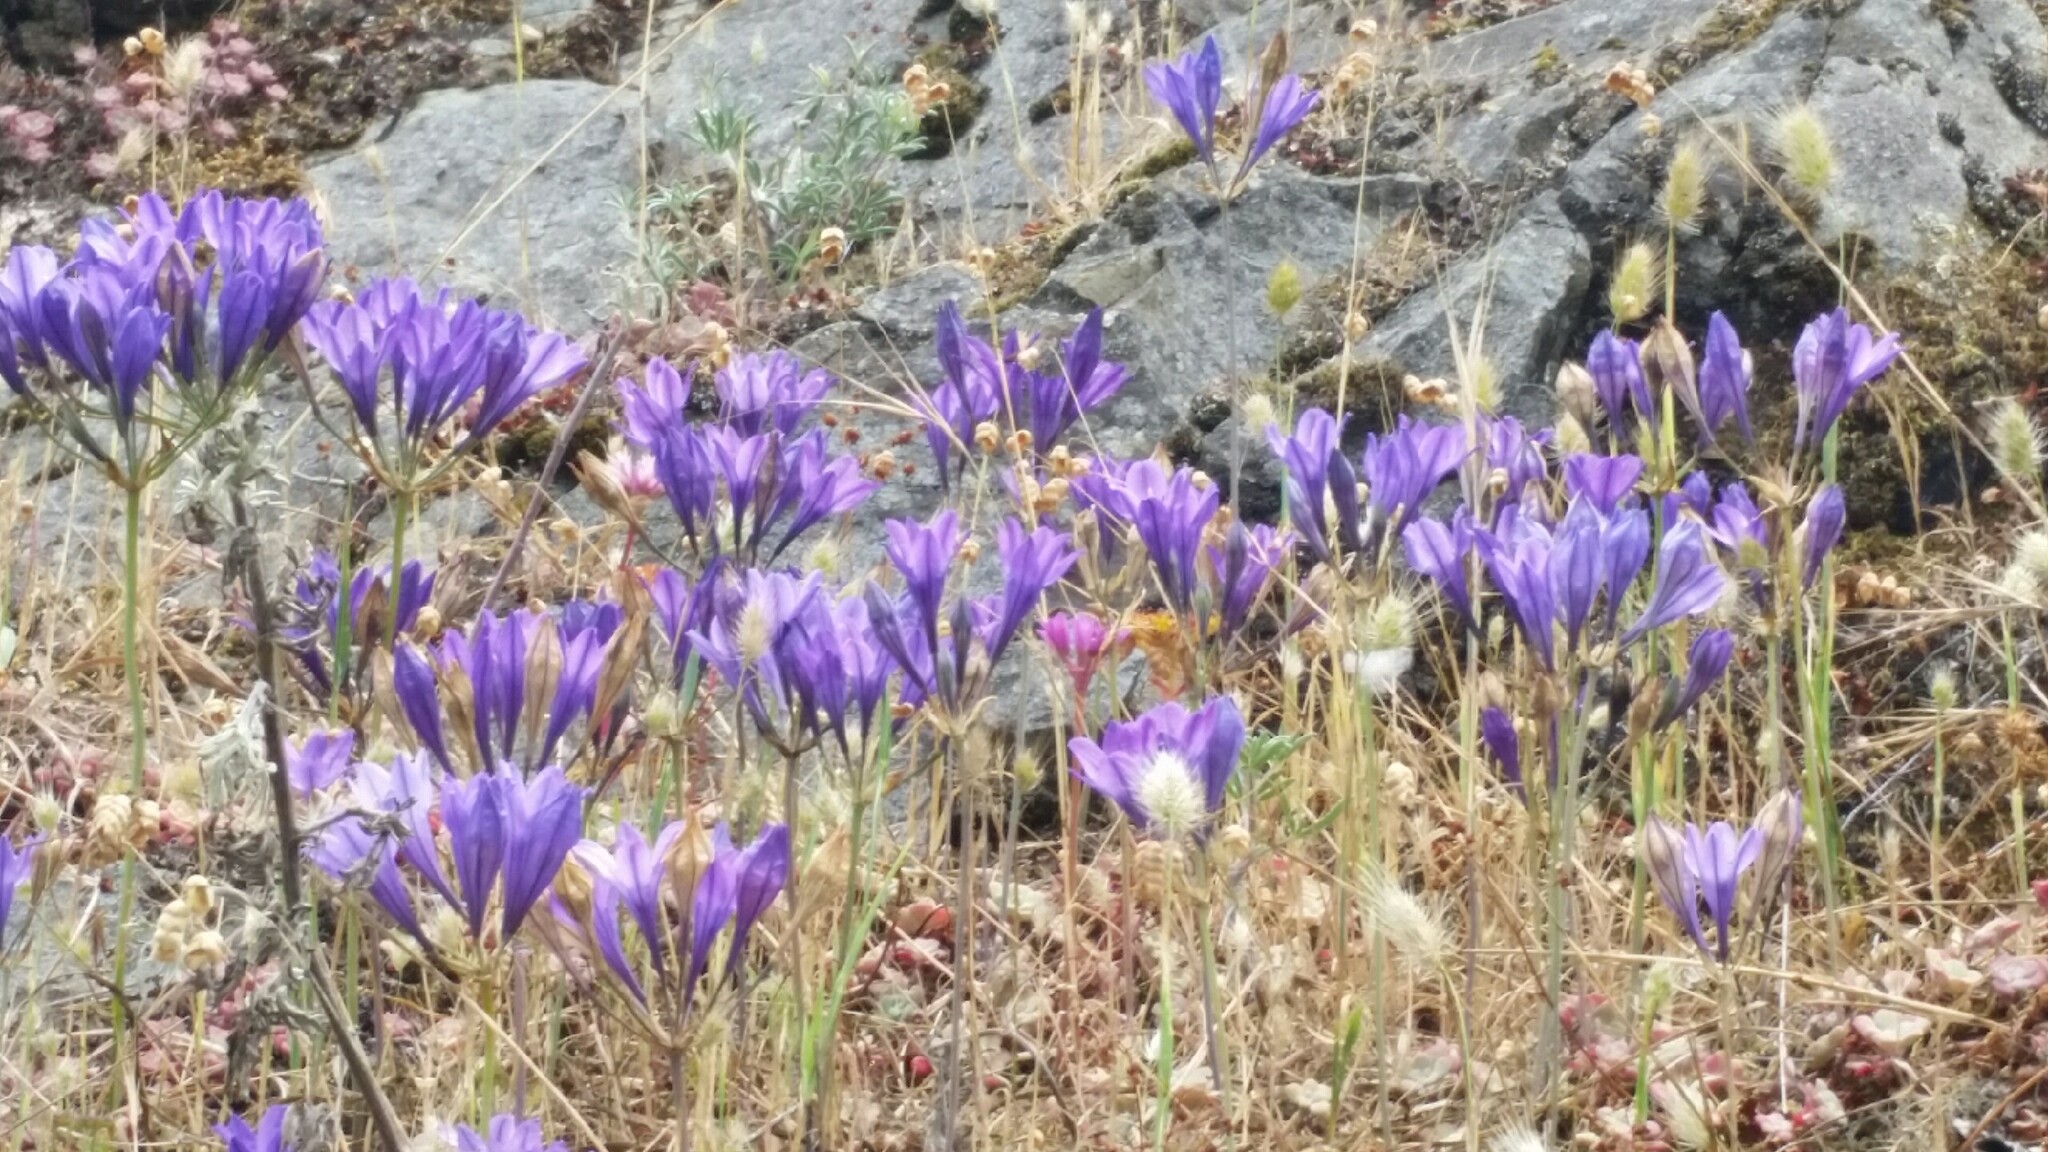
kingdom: Plantae
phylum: Tracheophyta
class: Liliopsida
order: Asparagales
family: Asparagaceae
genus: Triteleia
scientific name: Triteleia laxa
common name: Triplet-lily
